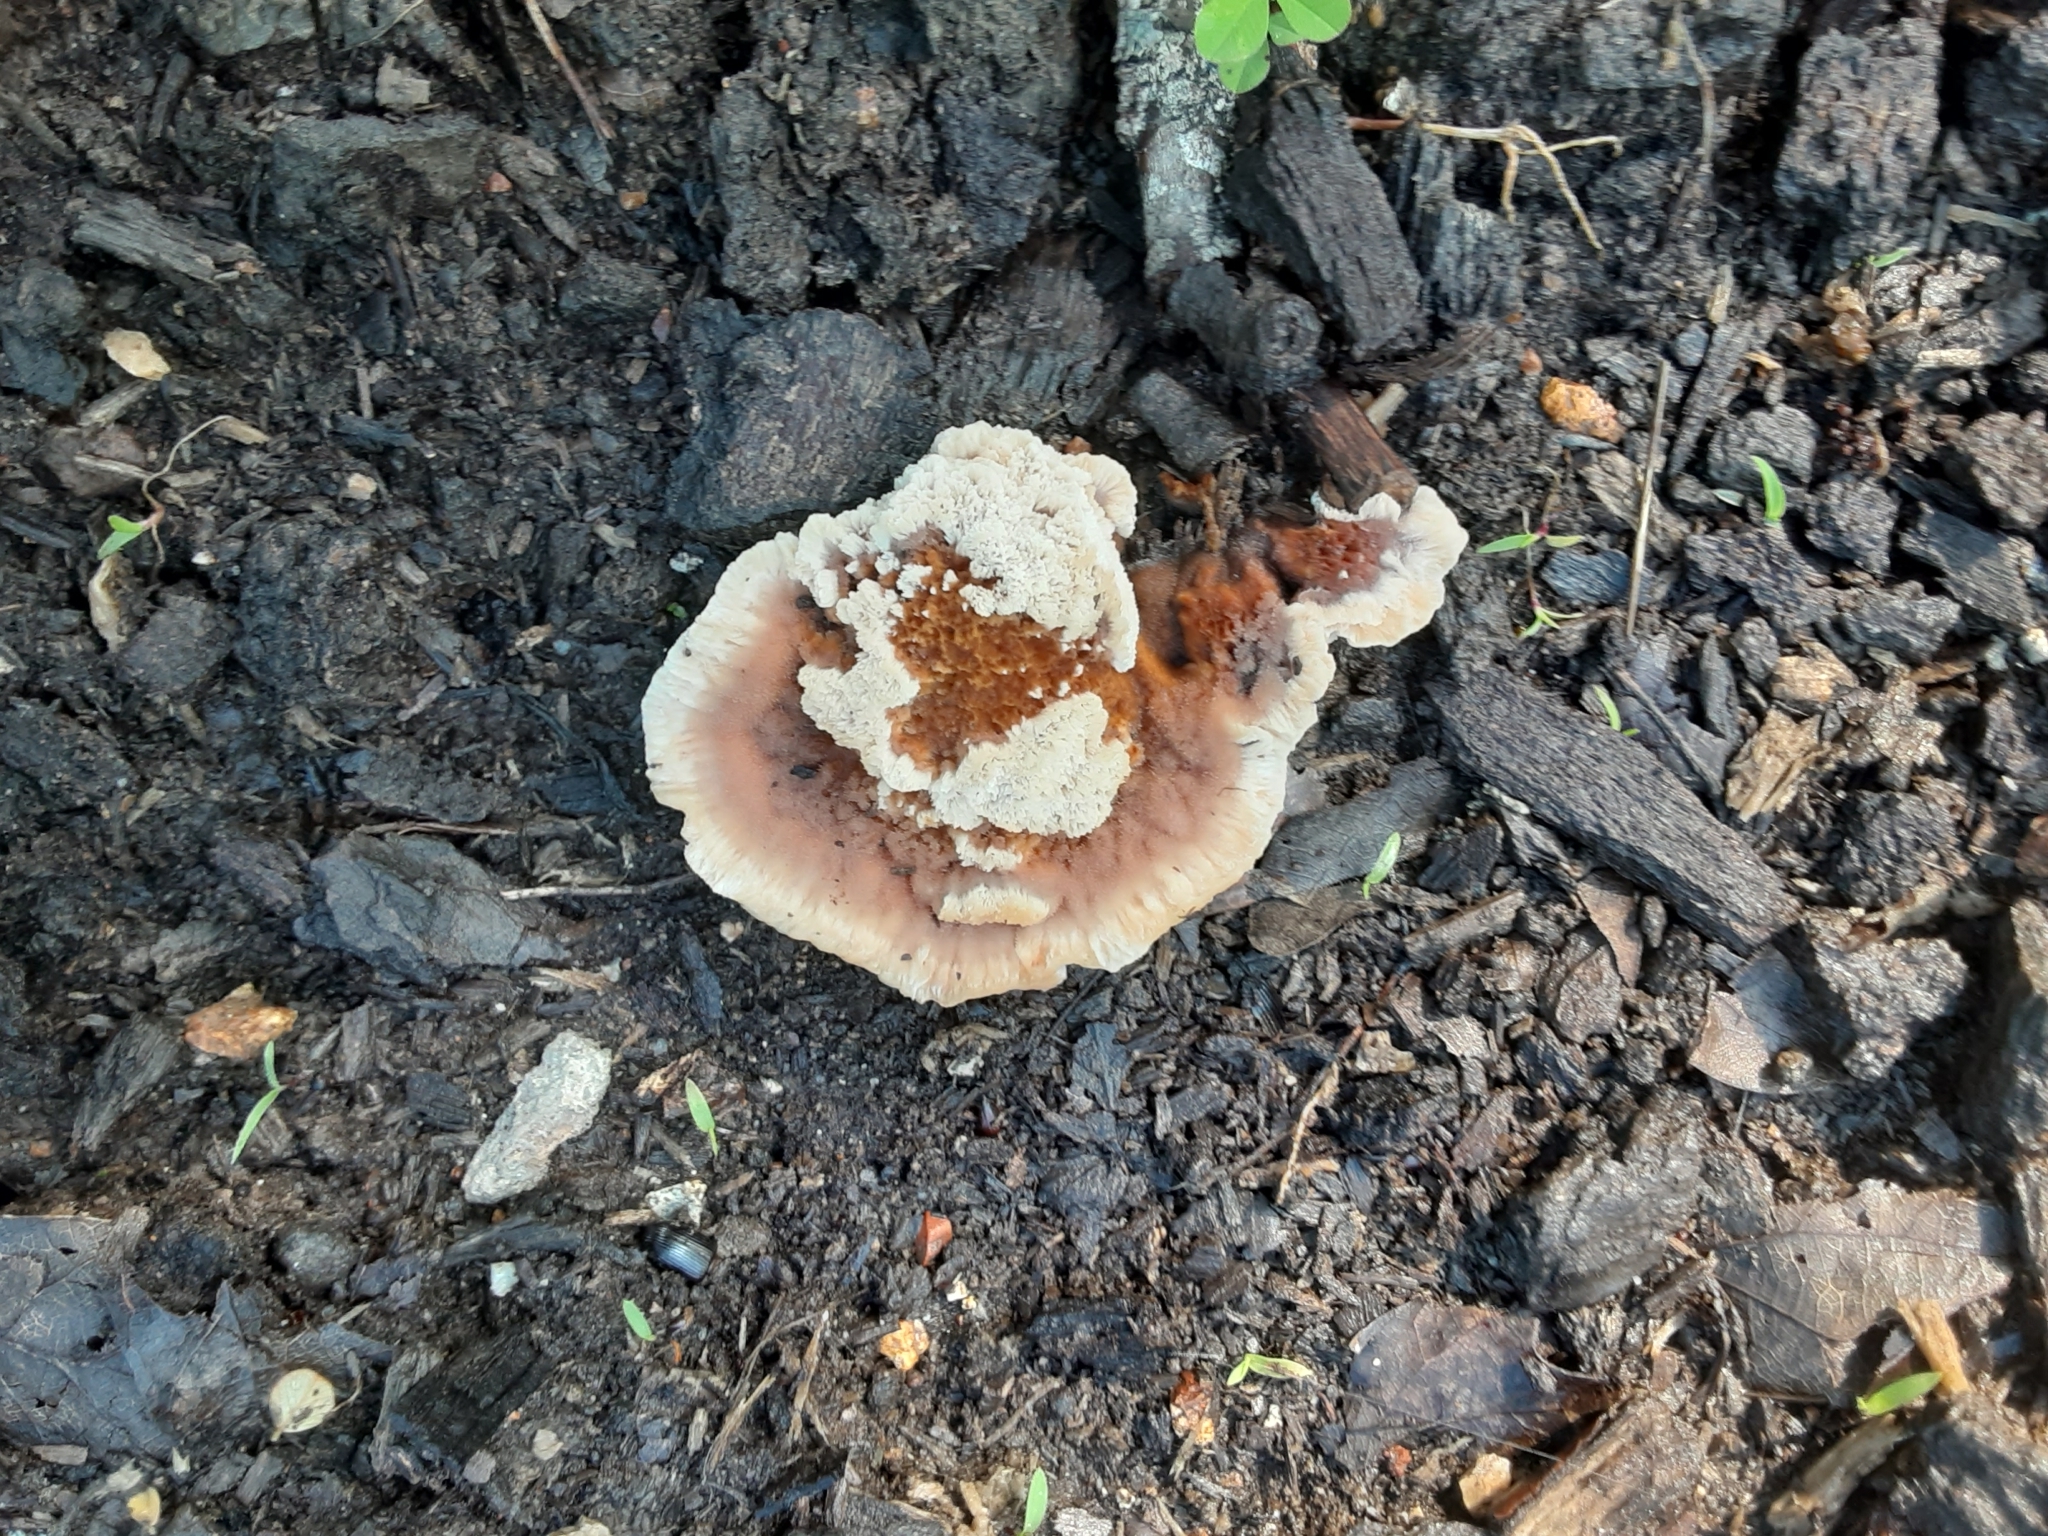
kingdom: Fungi
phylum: Basidiomycota
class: Agaricomycetes
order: Polyporales
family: Podoscyphaceae
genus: Abortiporus
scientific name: Abortiporus biennis
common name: Blushing rosette
